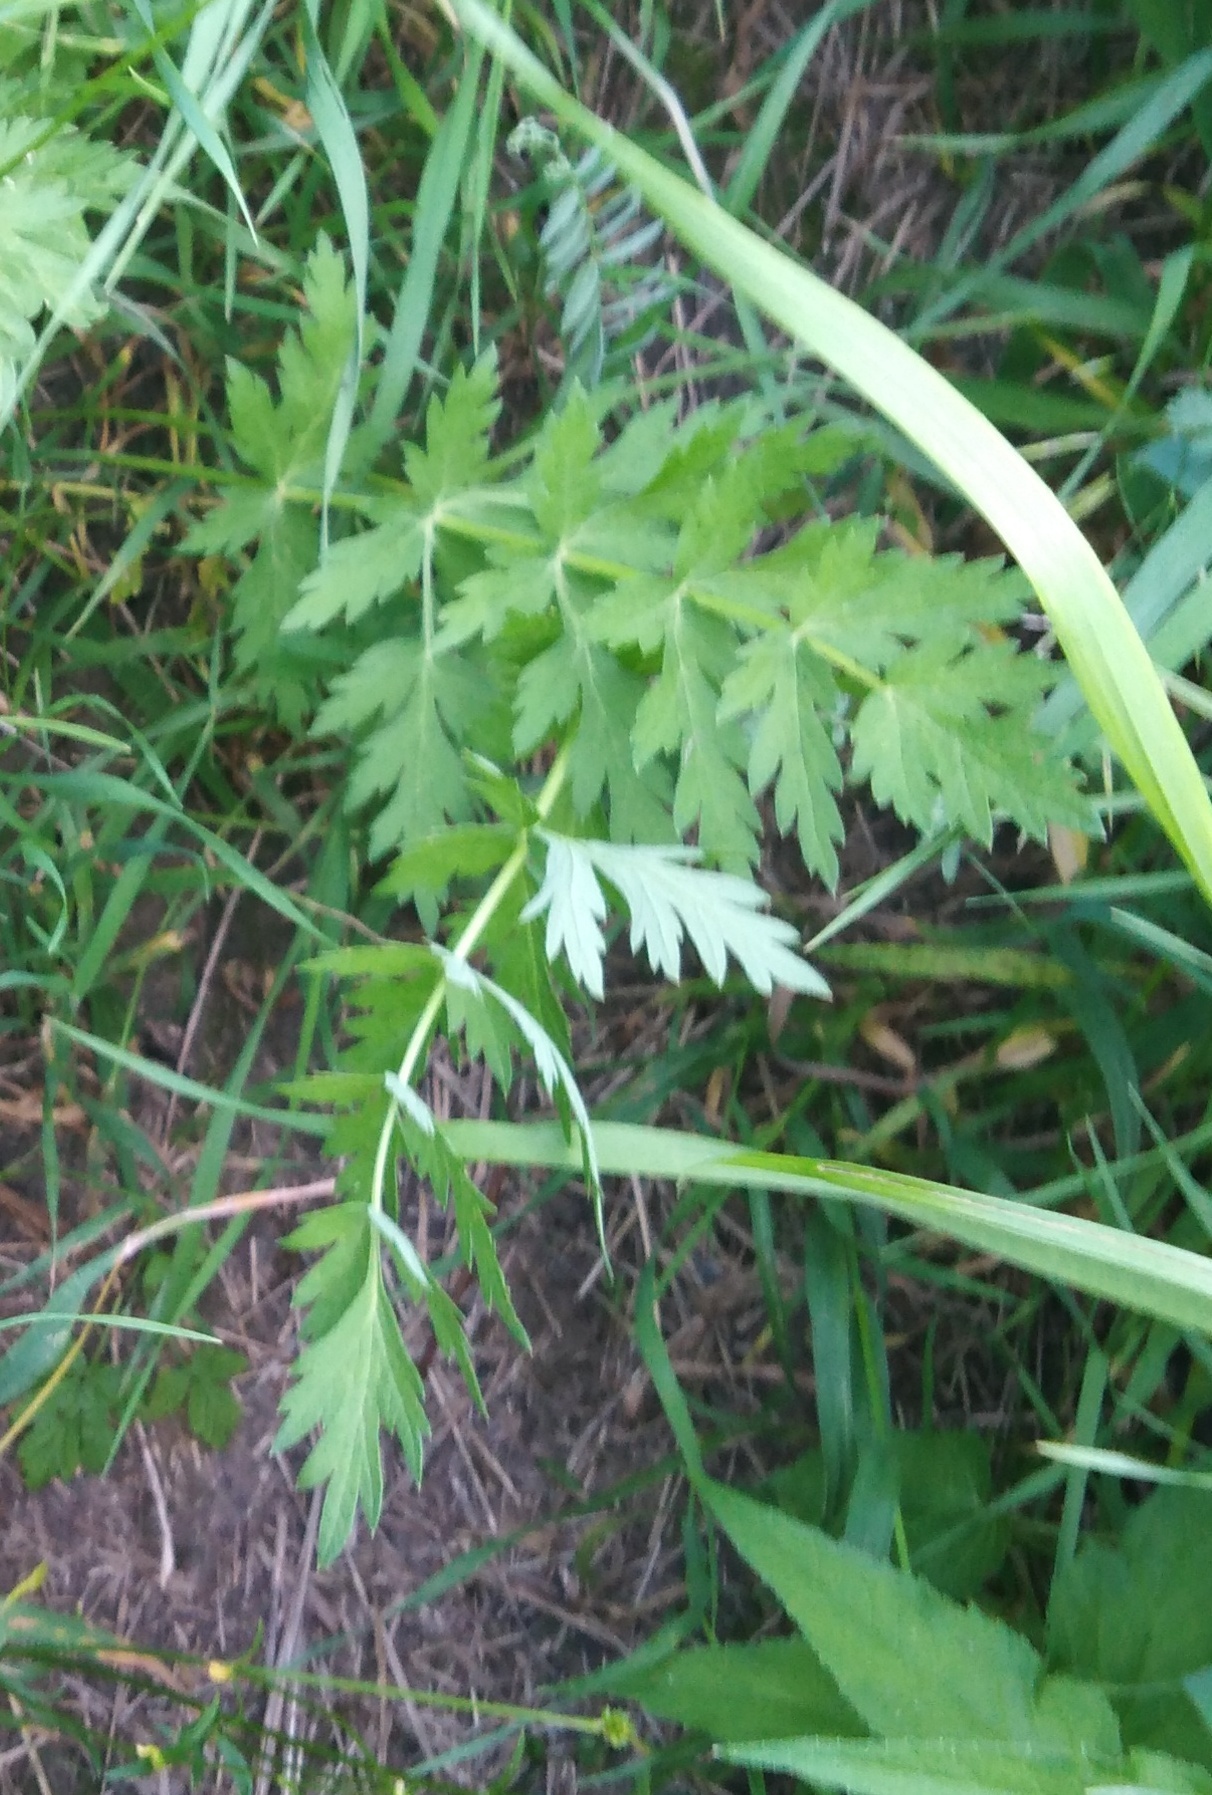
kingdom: Plantae
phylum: Tracheophyta
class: Magnoliopsida
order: Apiales
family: Apiaceae
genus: Seseli
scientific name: Seseli libanotis
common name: Mooncarrot
